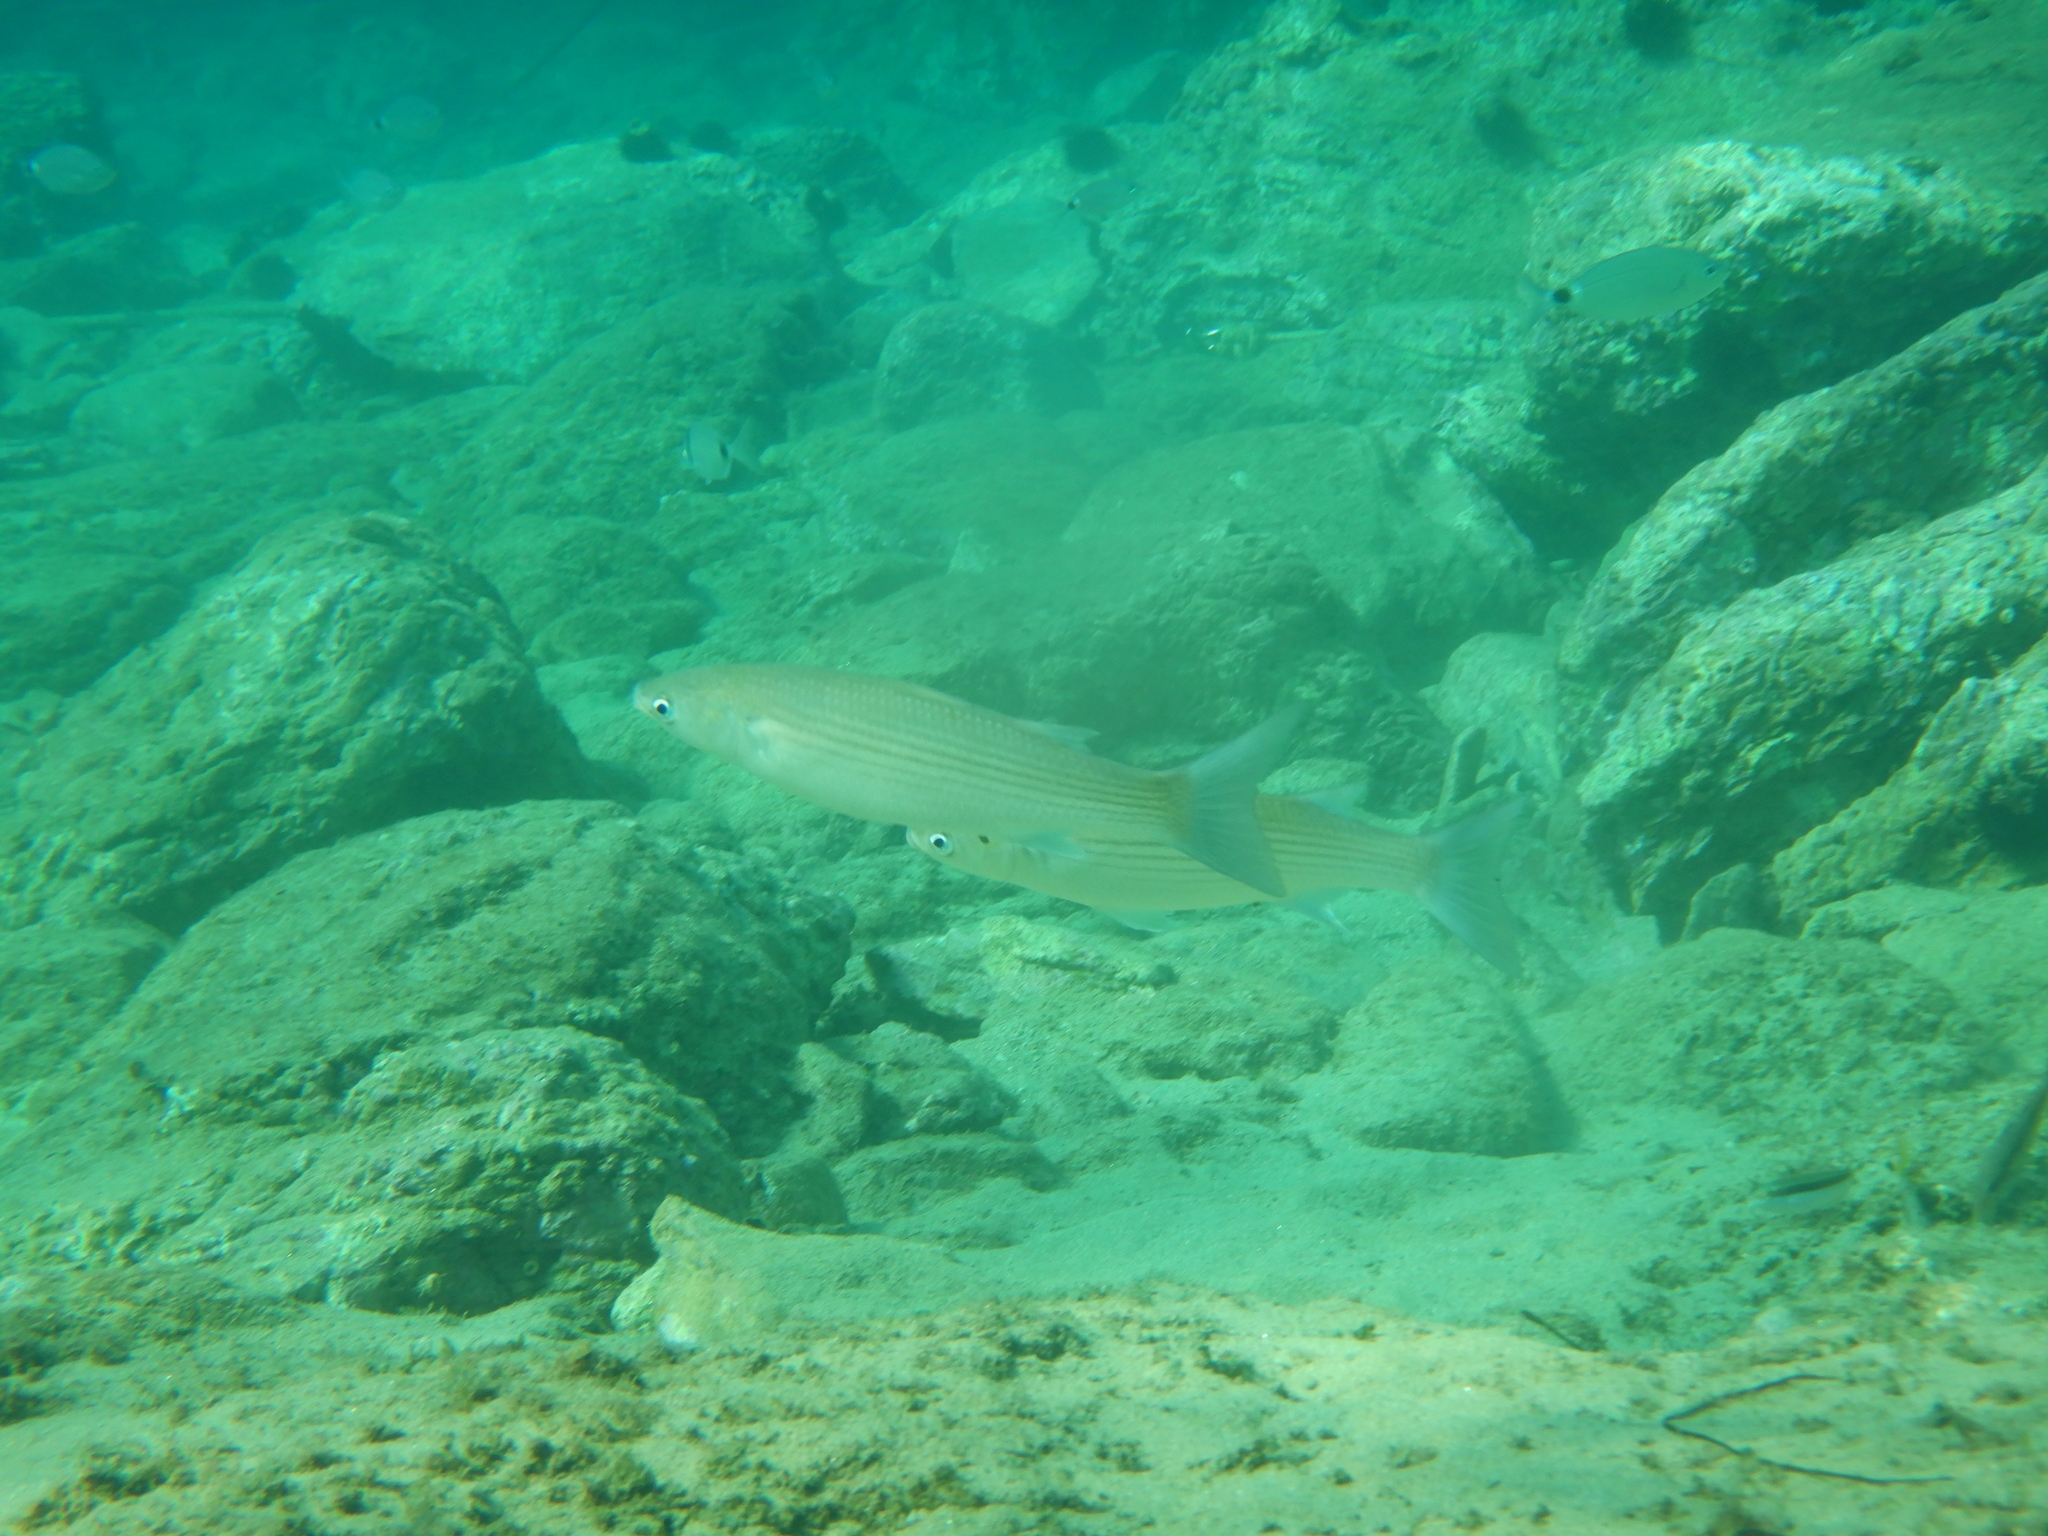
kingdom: Animalia
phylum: Chordata
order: Mugiliformes
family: Mugilidae
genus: Chelon
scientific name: Chelon
